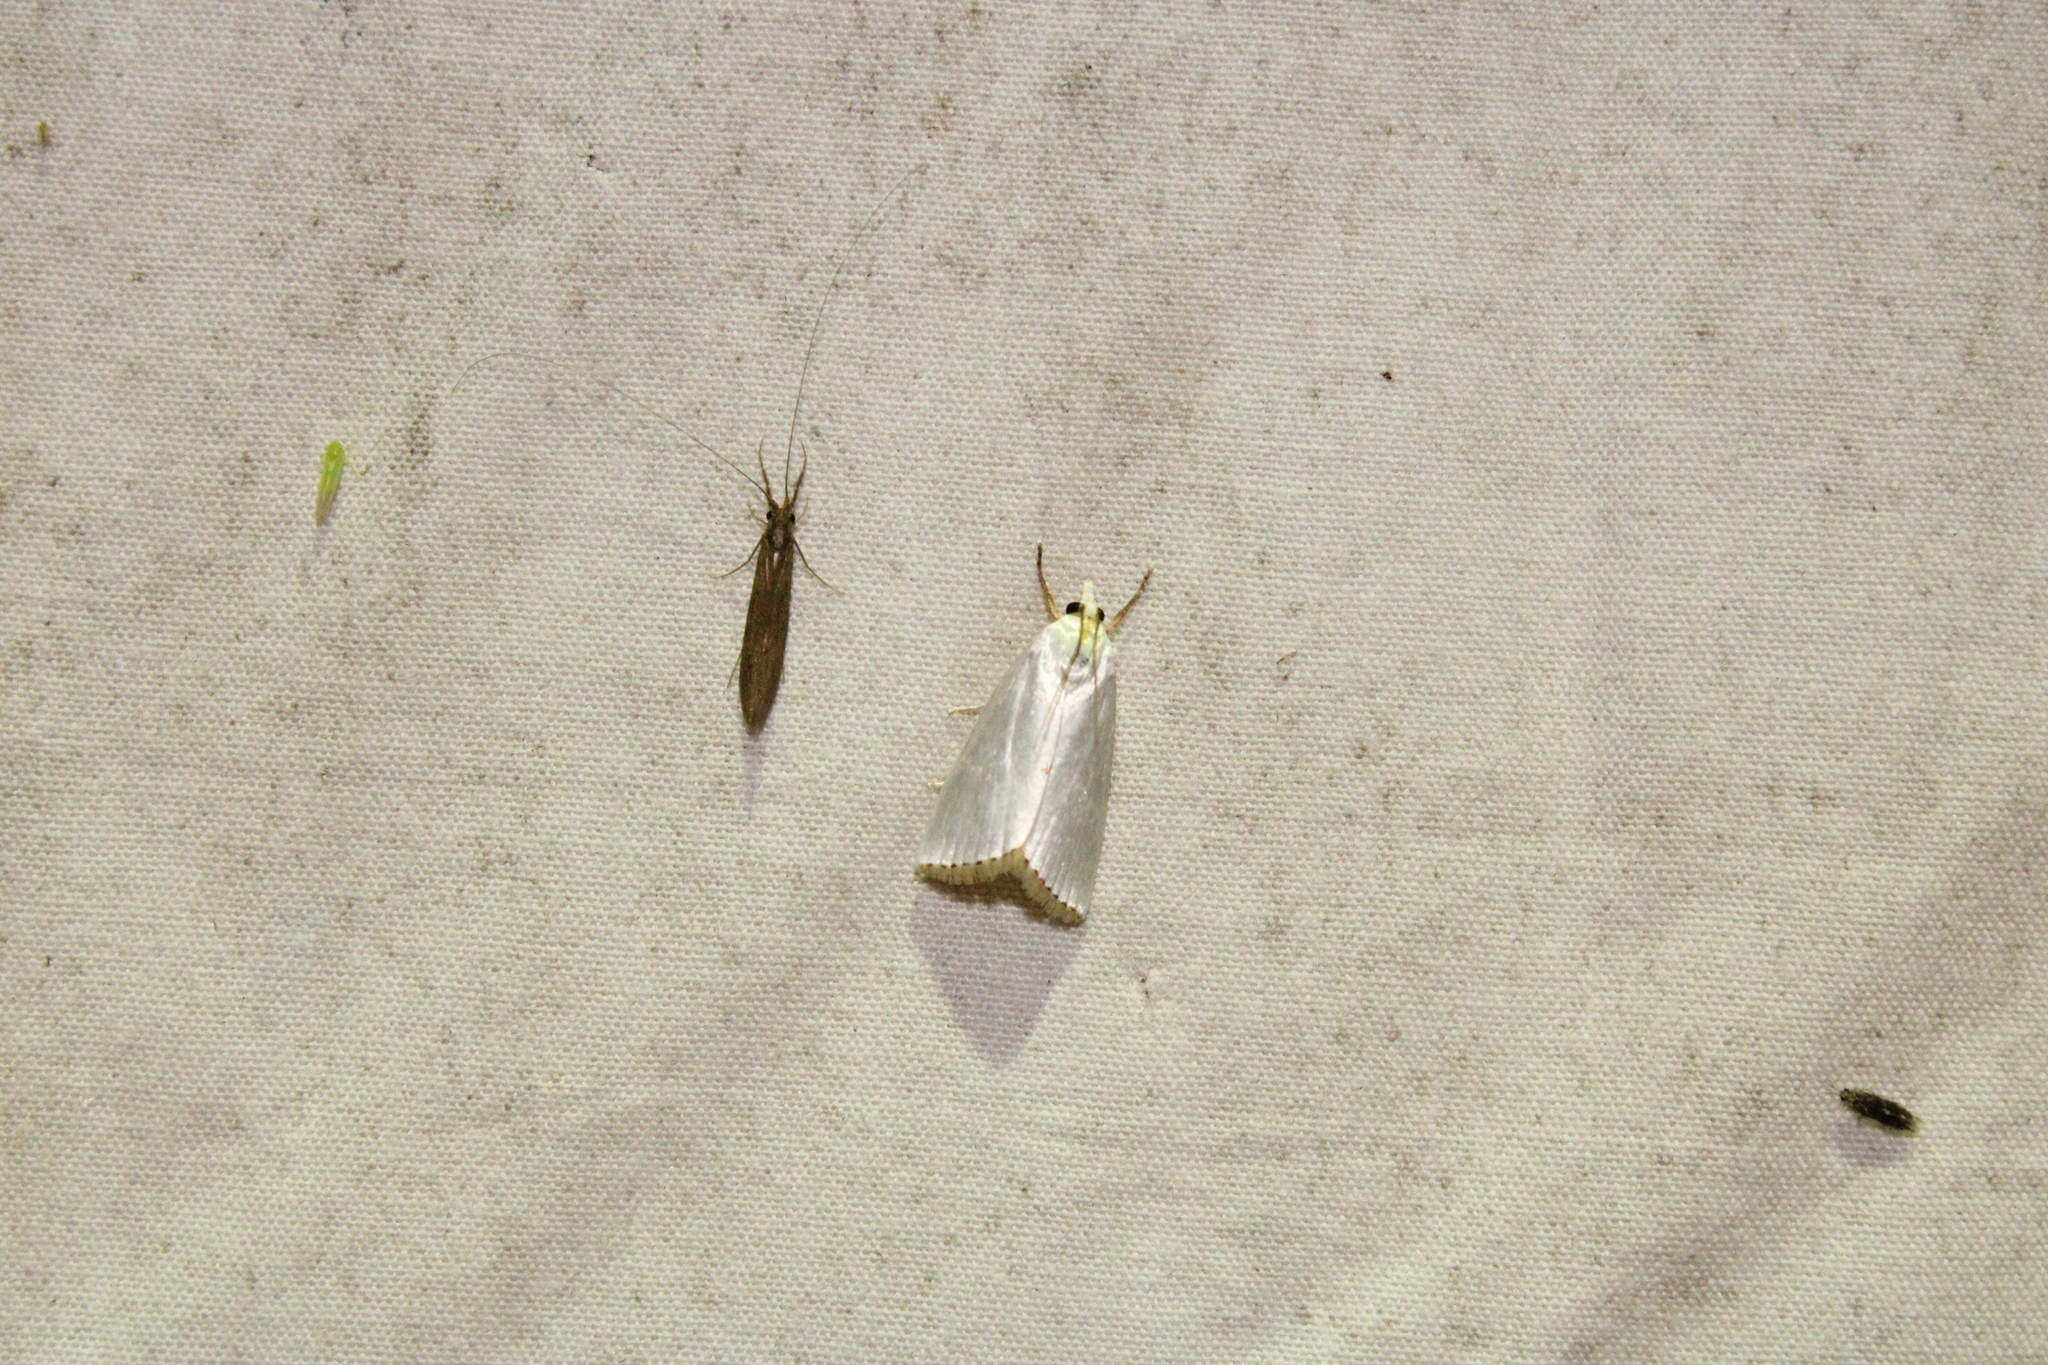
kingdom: Animalia
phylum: Arthropoda
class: Insecta
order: Lepidoptera
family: Crambidae
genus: Argyria
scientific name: Argyria nivalis
